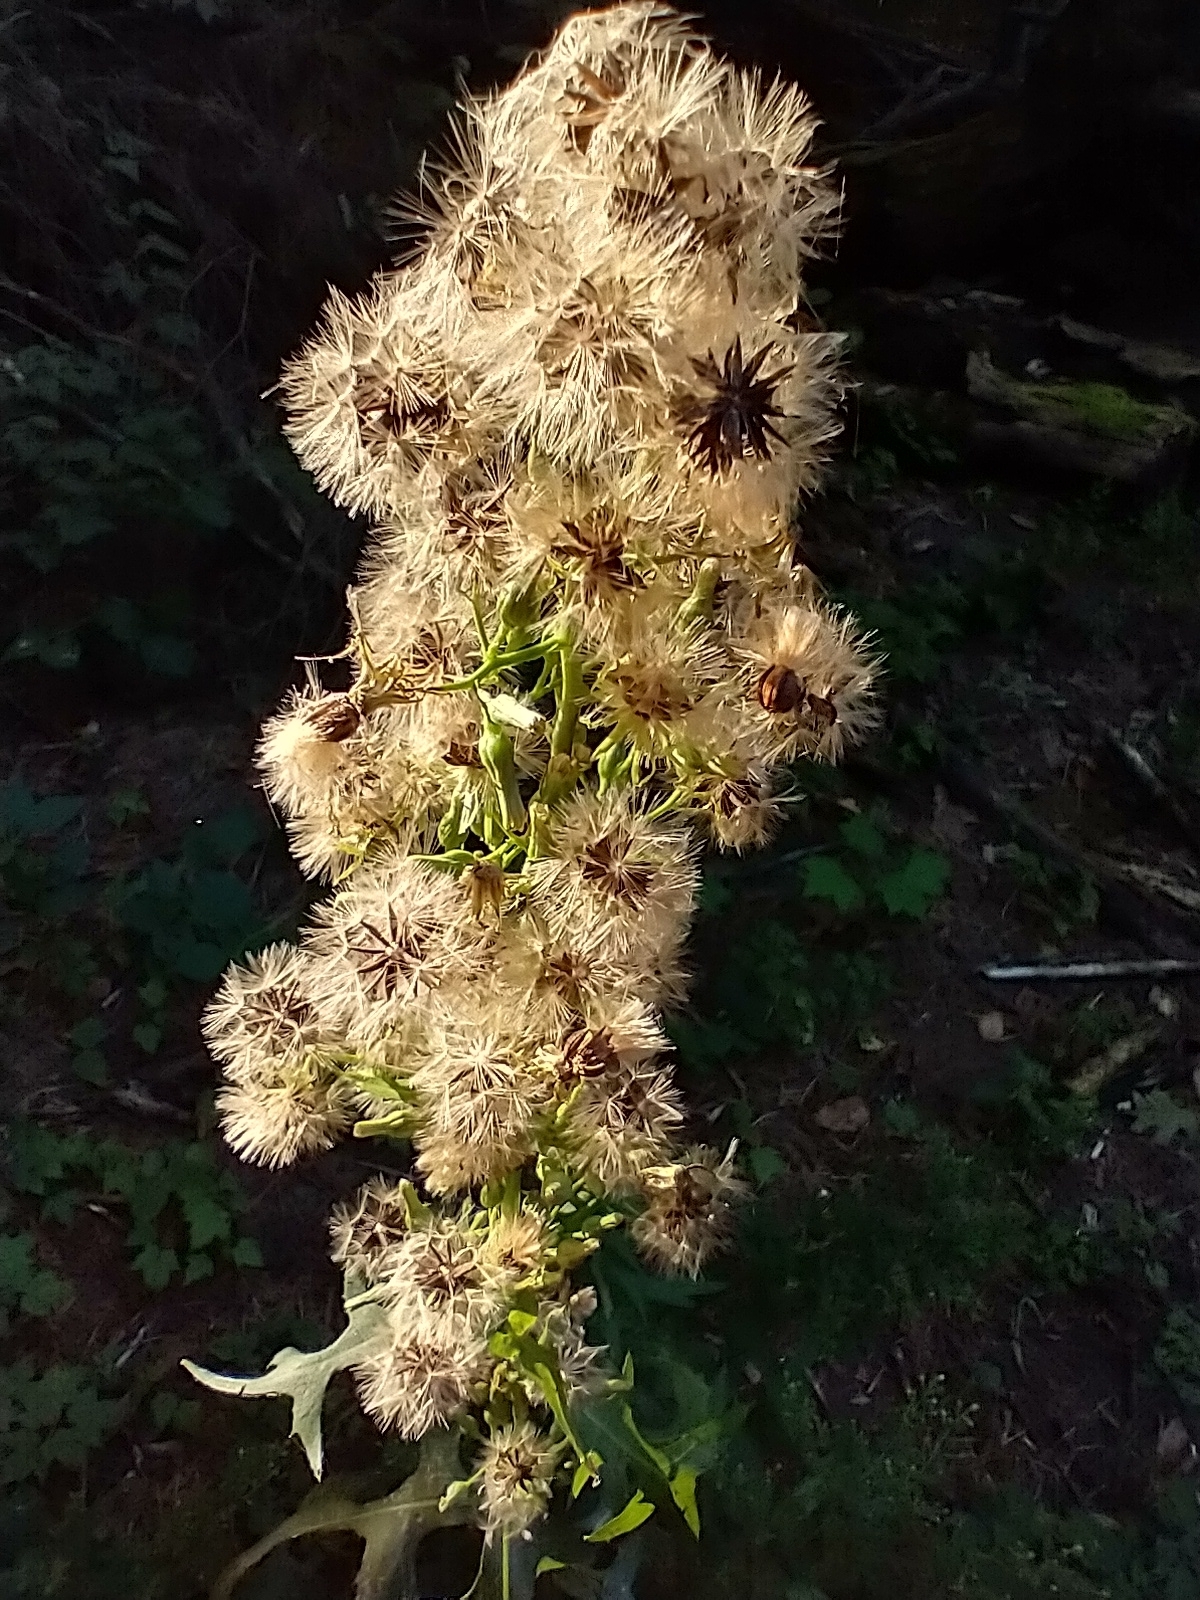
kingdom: Plantae
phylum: Tracheophyta
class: Magnoliopsida
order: Asterales
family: Asteraceae
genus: Lactuca
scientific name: Lactuca biennis
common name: Blue wood lettuce
